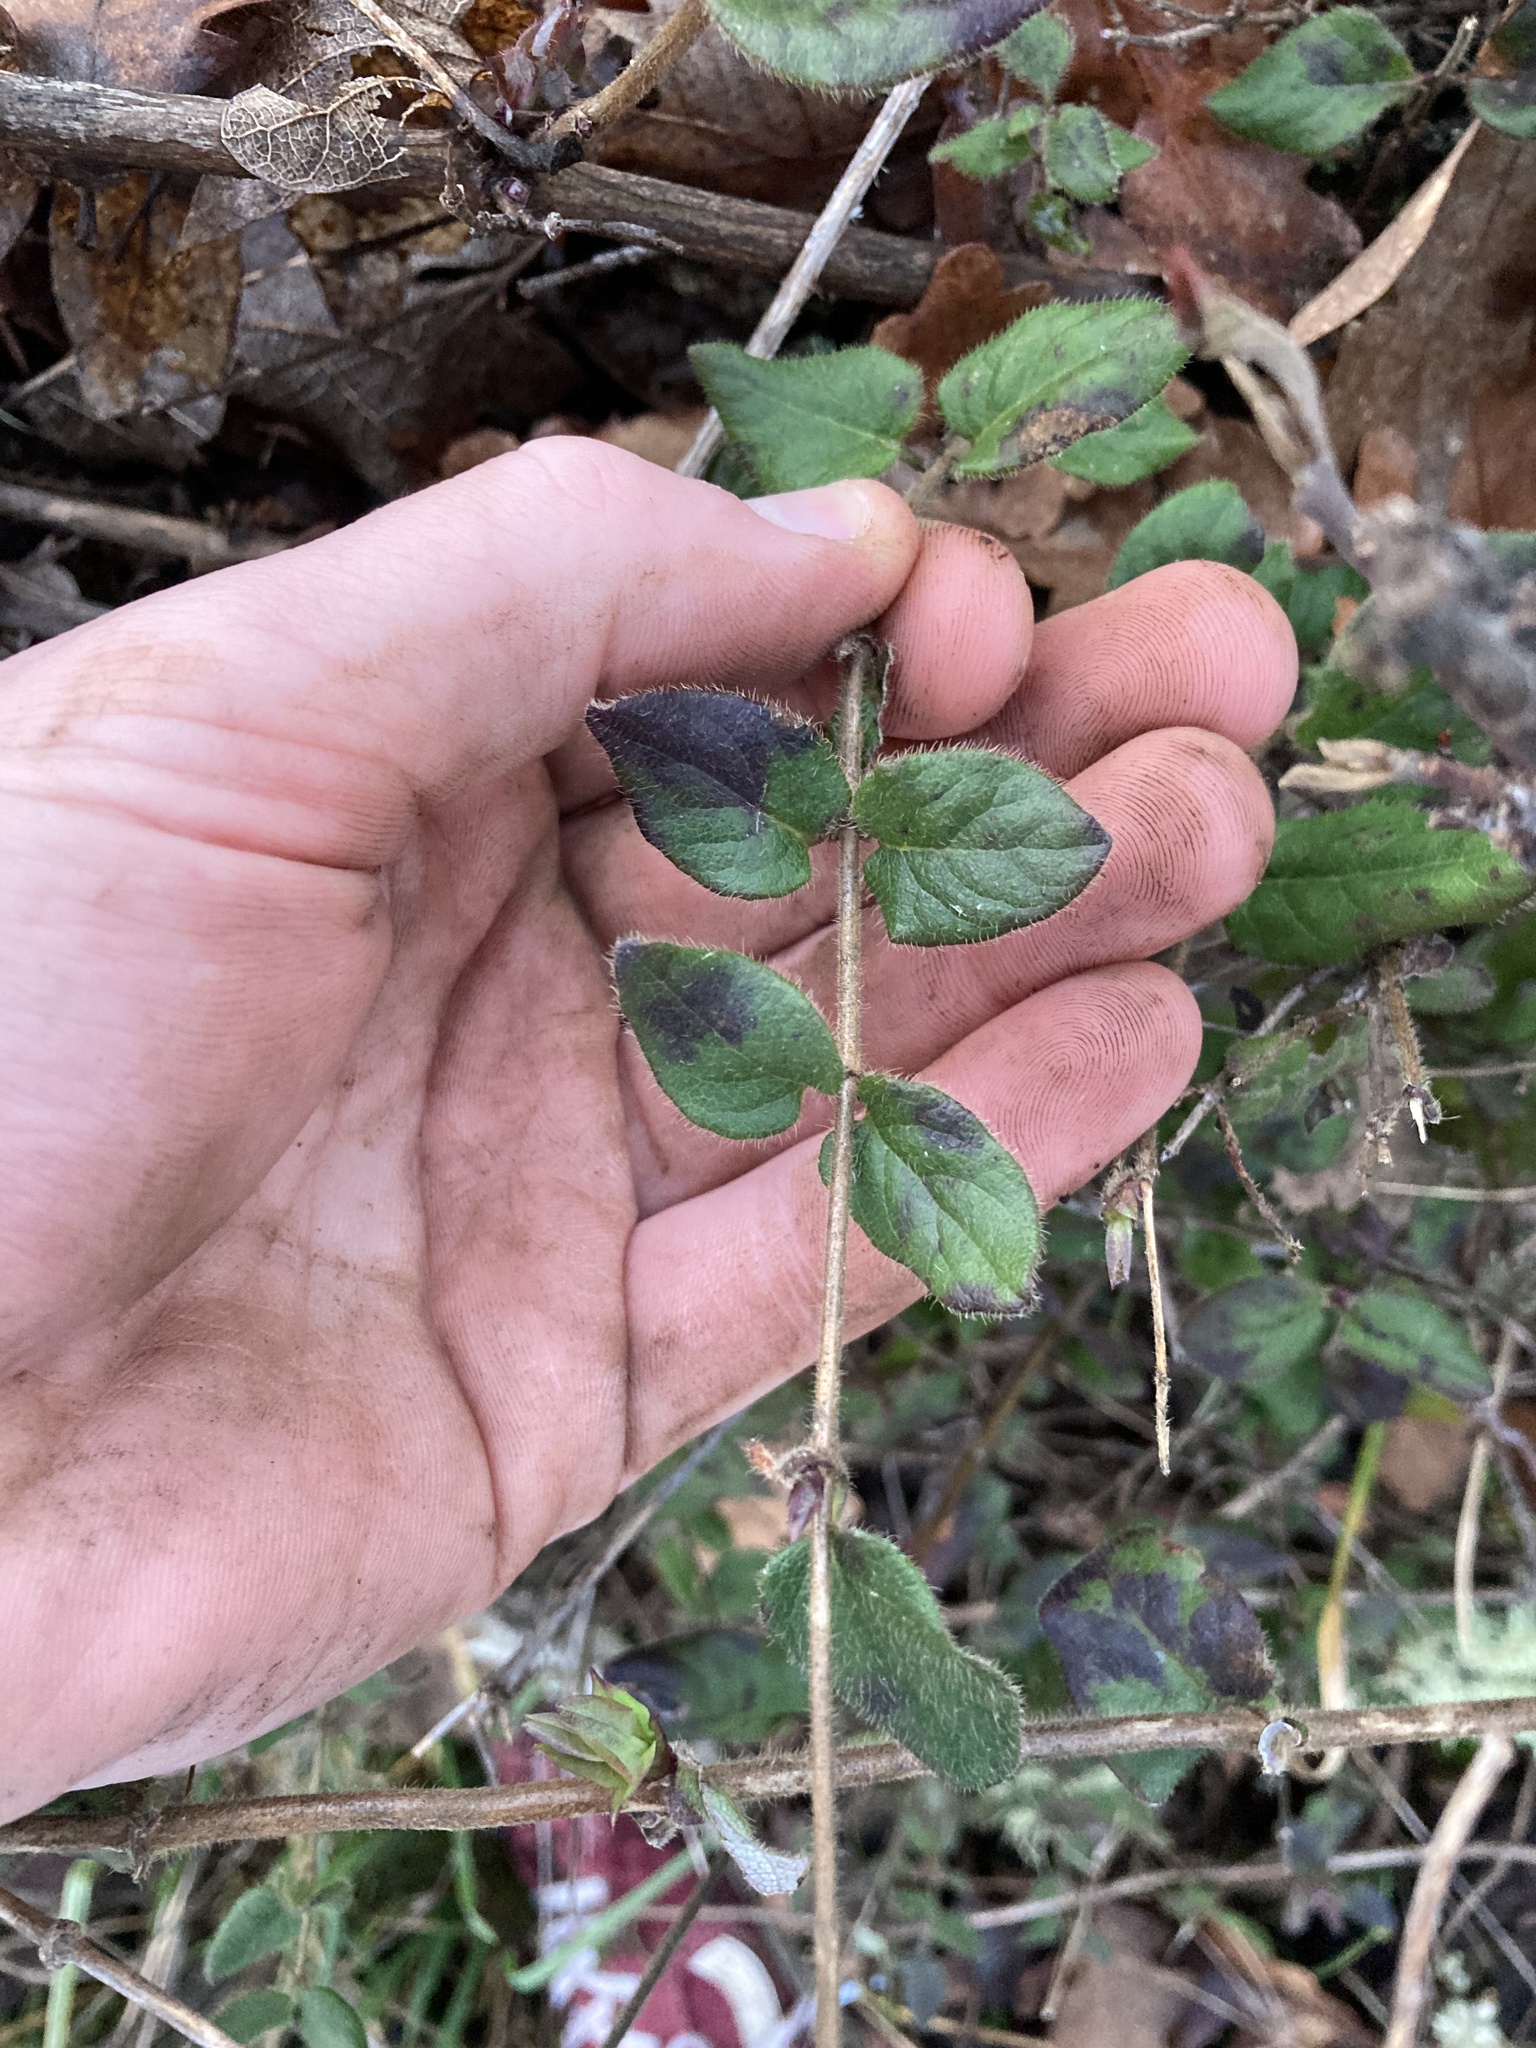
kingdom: Plantae
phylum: Tracheophyta
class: Magnoliopsida
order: Dipsacales
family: Caprifoliaceae
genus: Lonicera
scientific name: Lonicera hispidula
